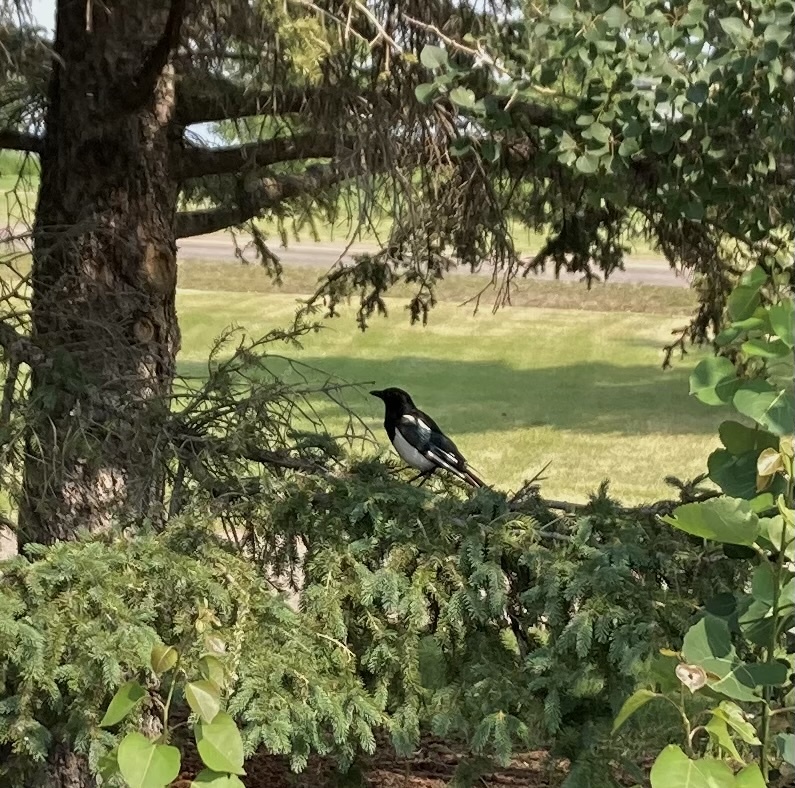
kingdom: Animalia
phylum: Chordata
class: Aves
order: Passeriformes
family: Corvidae
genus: Pica
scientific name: Pica hudsonia
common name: Black-billed magpie
